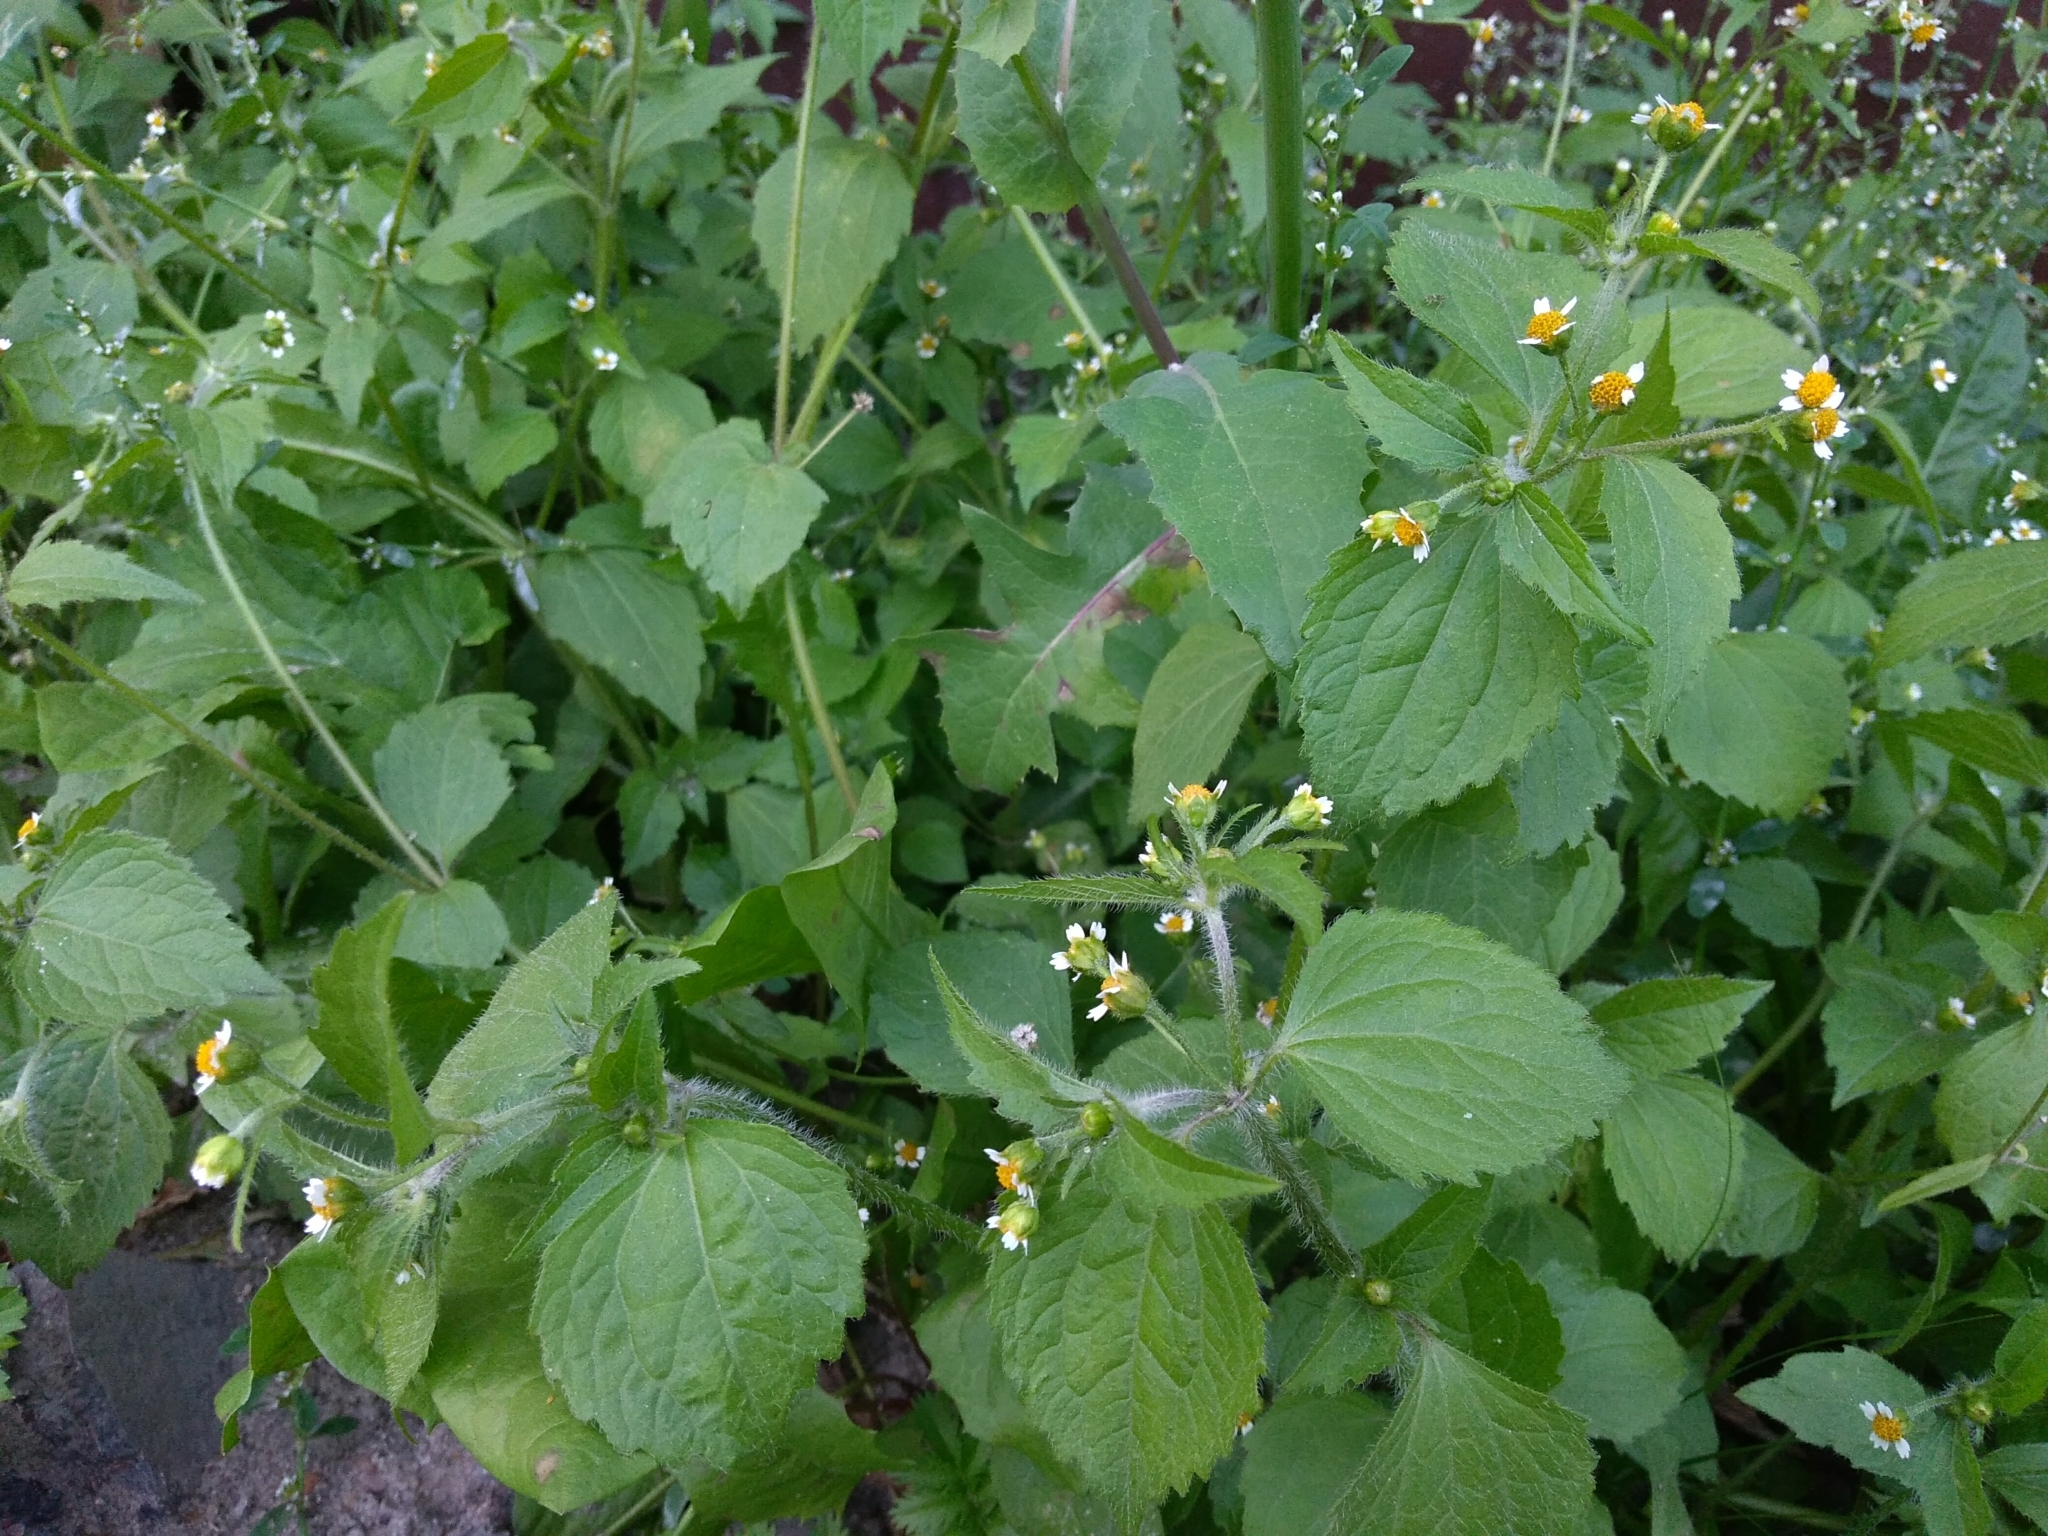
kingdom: Plantae
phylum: Tracheophyta
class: Magnoliopsida
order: Asterales
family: Asteraceae
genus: Galinsoga
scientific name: Galinsoga quadriradiata
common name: Shaggy soldier
